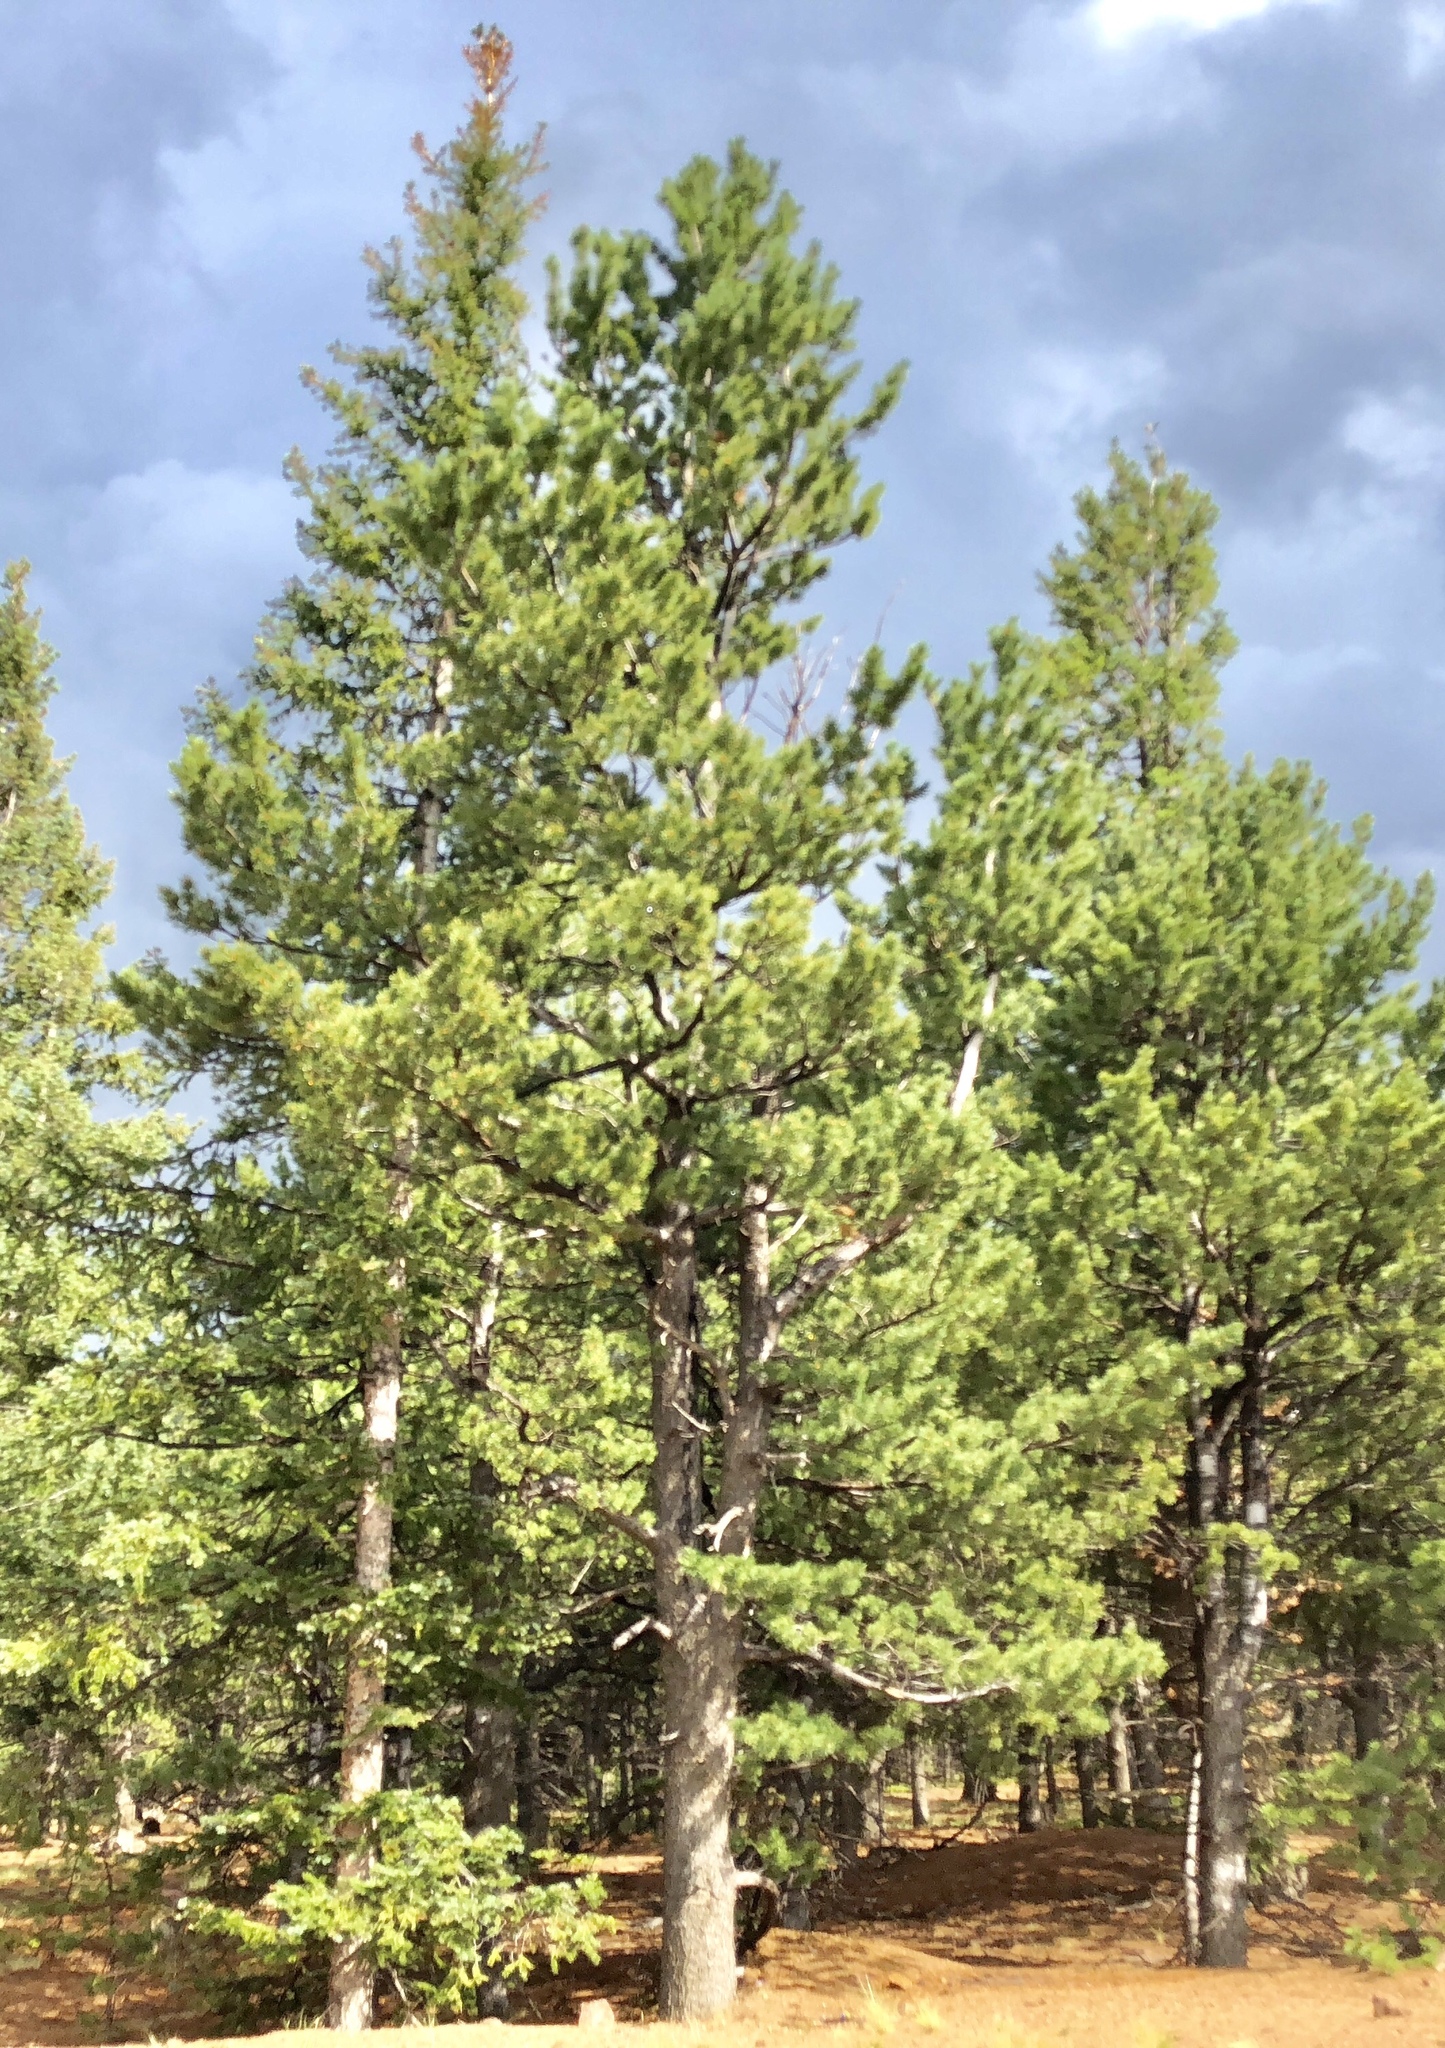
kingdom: Plantae
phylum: Tracheophyta
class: Pinopsida
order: Pinales
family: Pinaceae
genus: Pinus
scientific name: Pinus flexilis
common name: Limber pine
